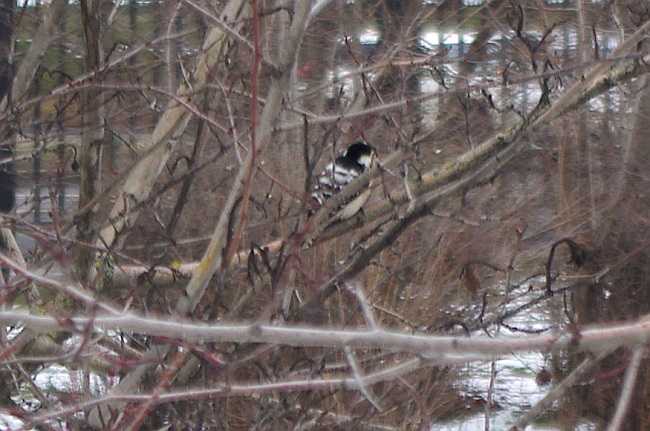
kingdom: Animalia
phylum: Chordata
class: Aves
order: Piciformes
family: Picidae
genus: Dryobates
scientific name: Dryobates minor
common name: Lesser spotted woodpecker
